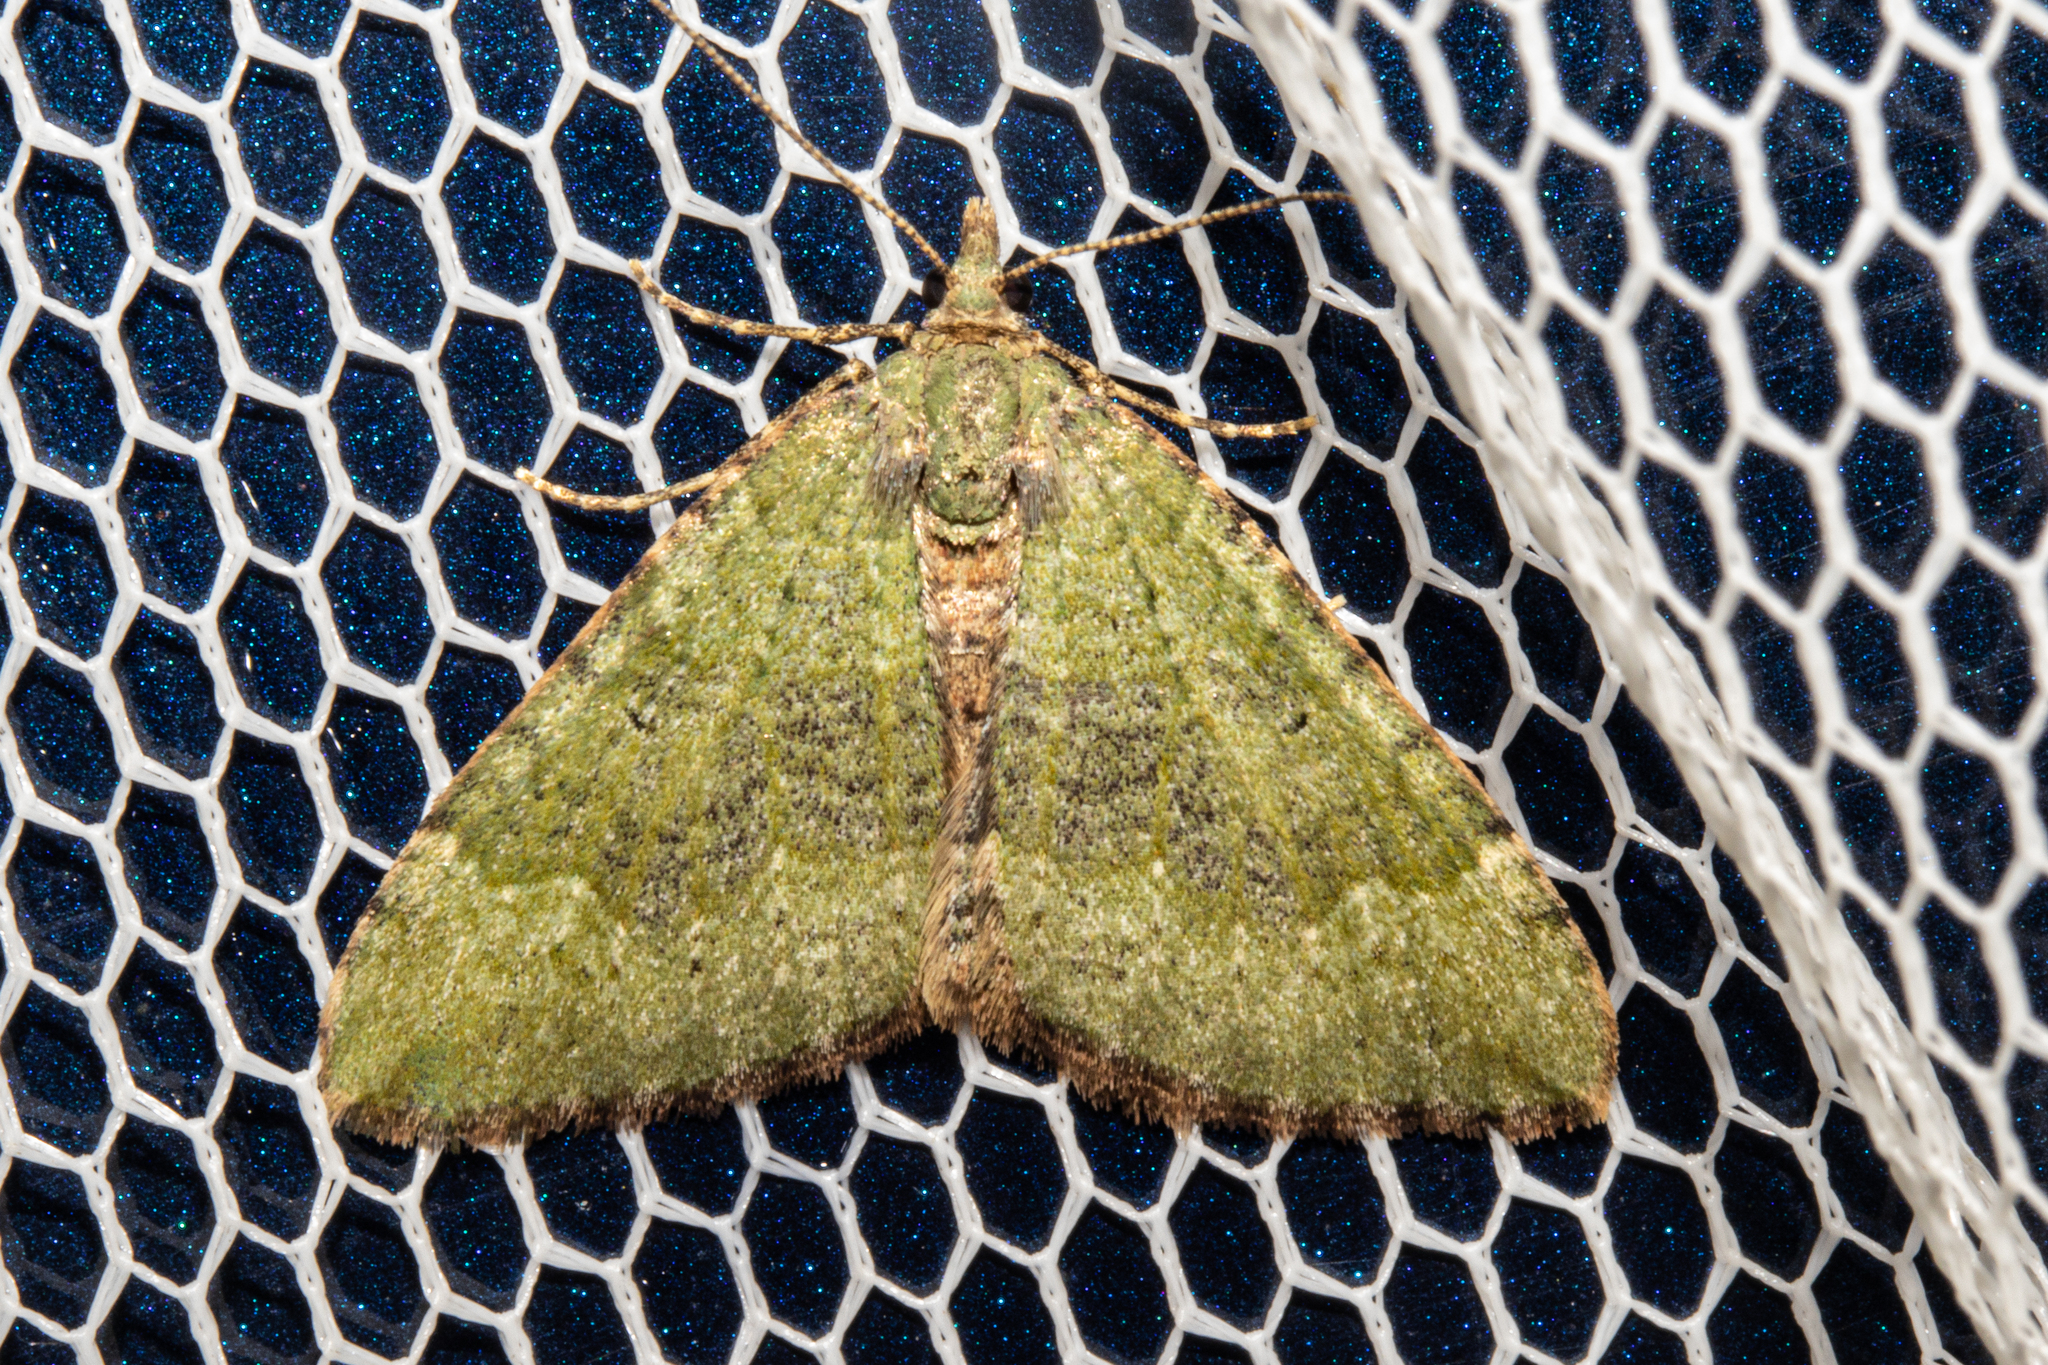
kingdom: Animalia
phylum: Arthropoda
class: Insecta
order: Lepidoptera
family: Geometridae
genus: Epyaxa
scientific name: Epyaxa rosearia
